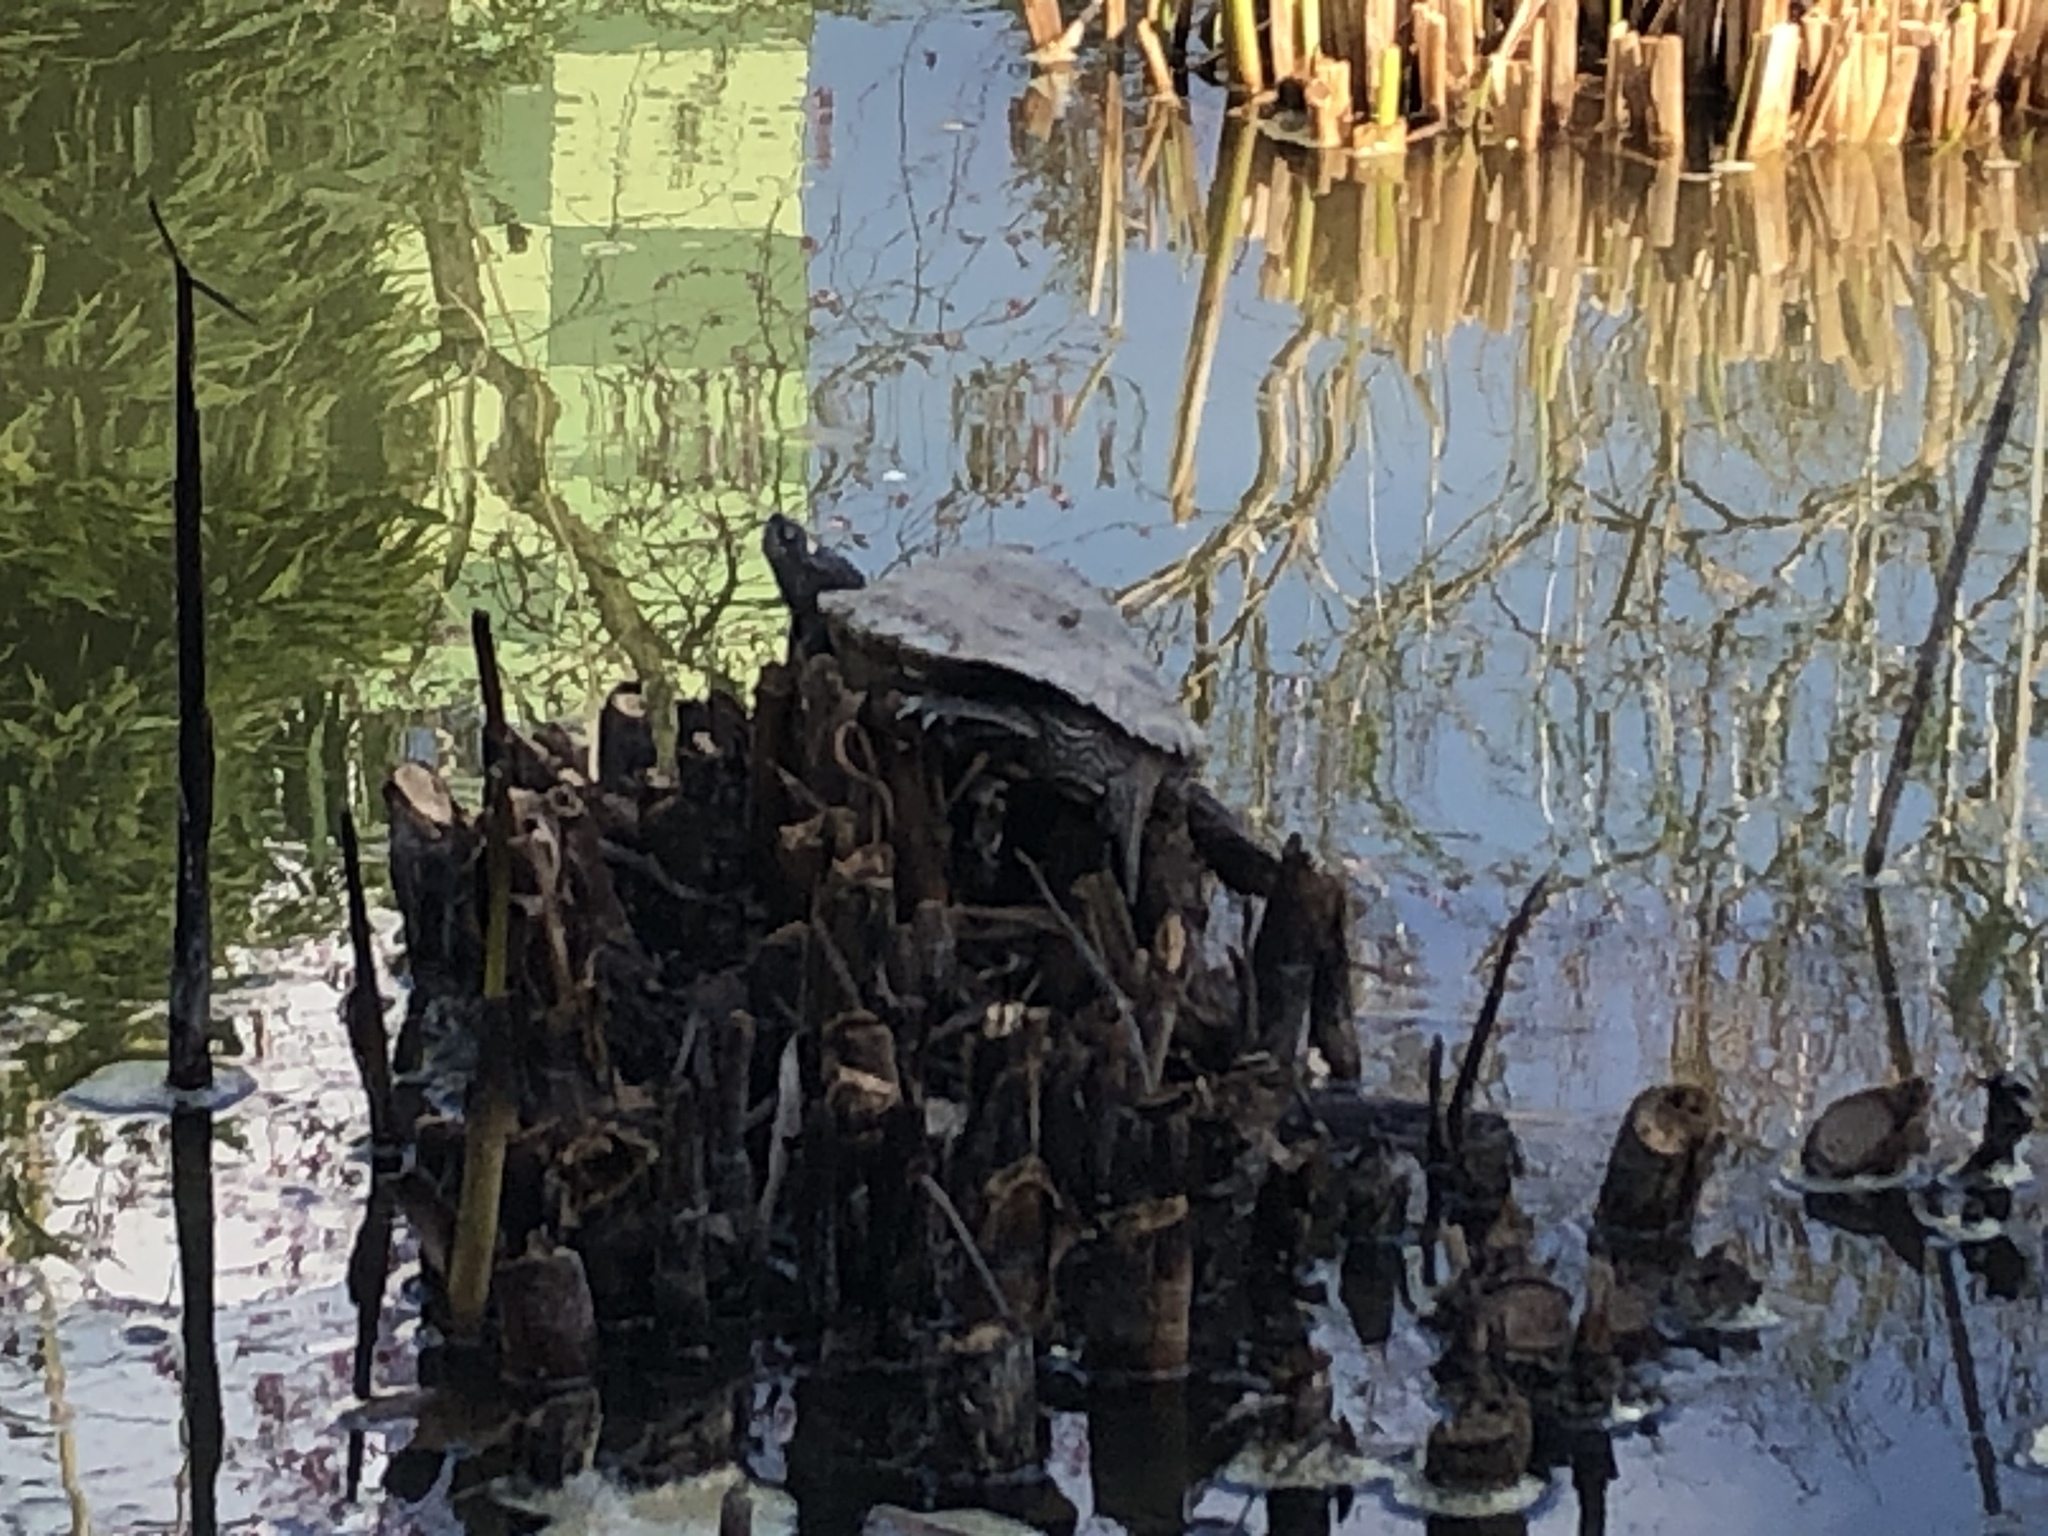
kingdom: Animalia
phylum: Chordata
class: Testudines
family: Emydidae
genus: Graptemys
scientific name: Graptemys ouachitensis
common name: Ouachita map turtle
